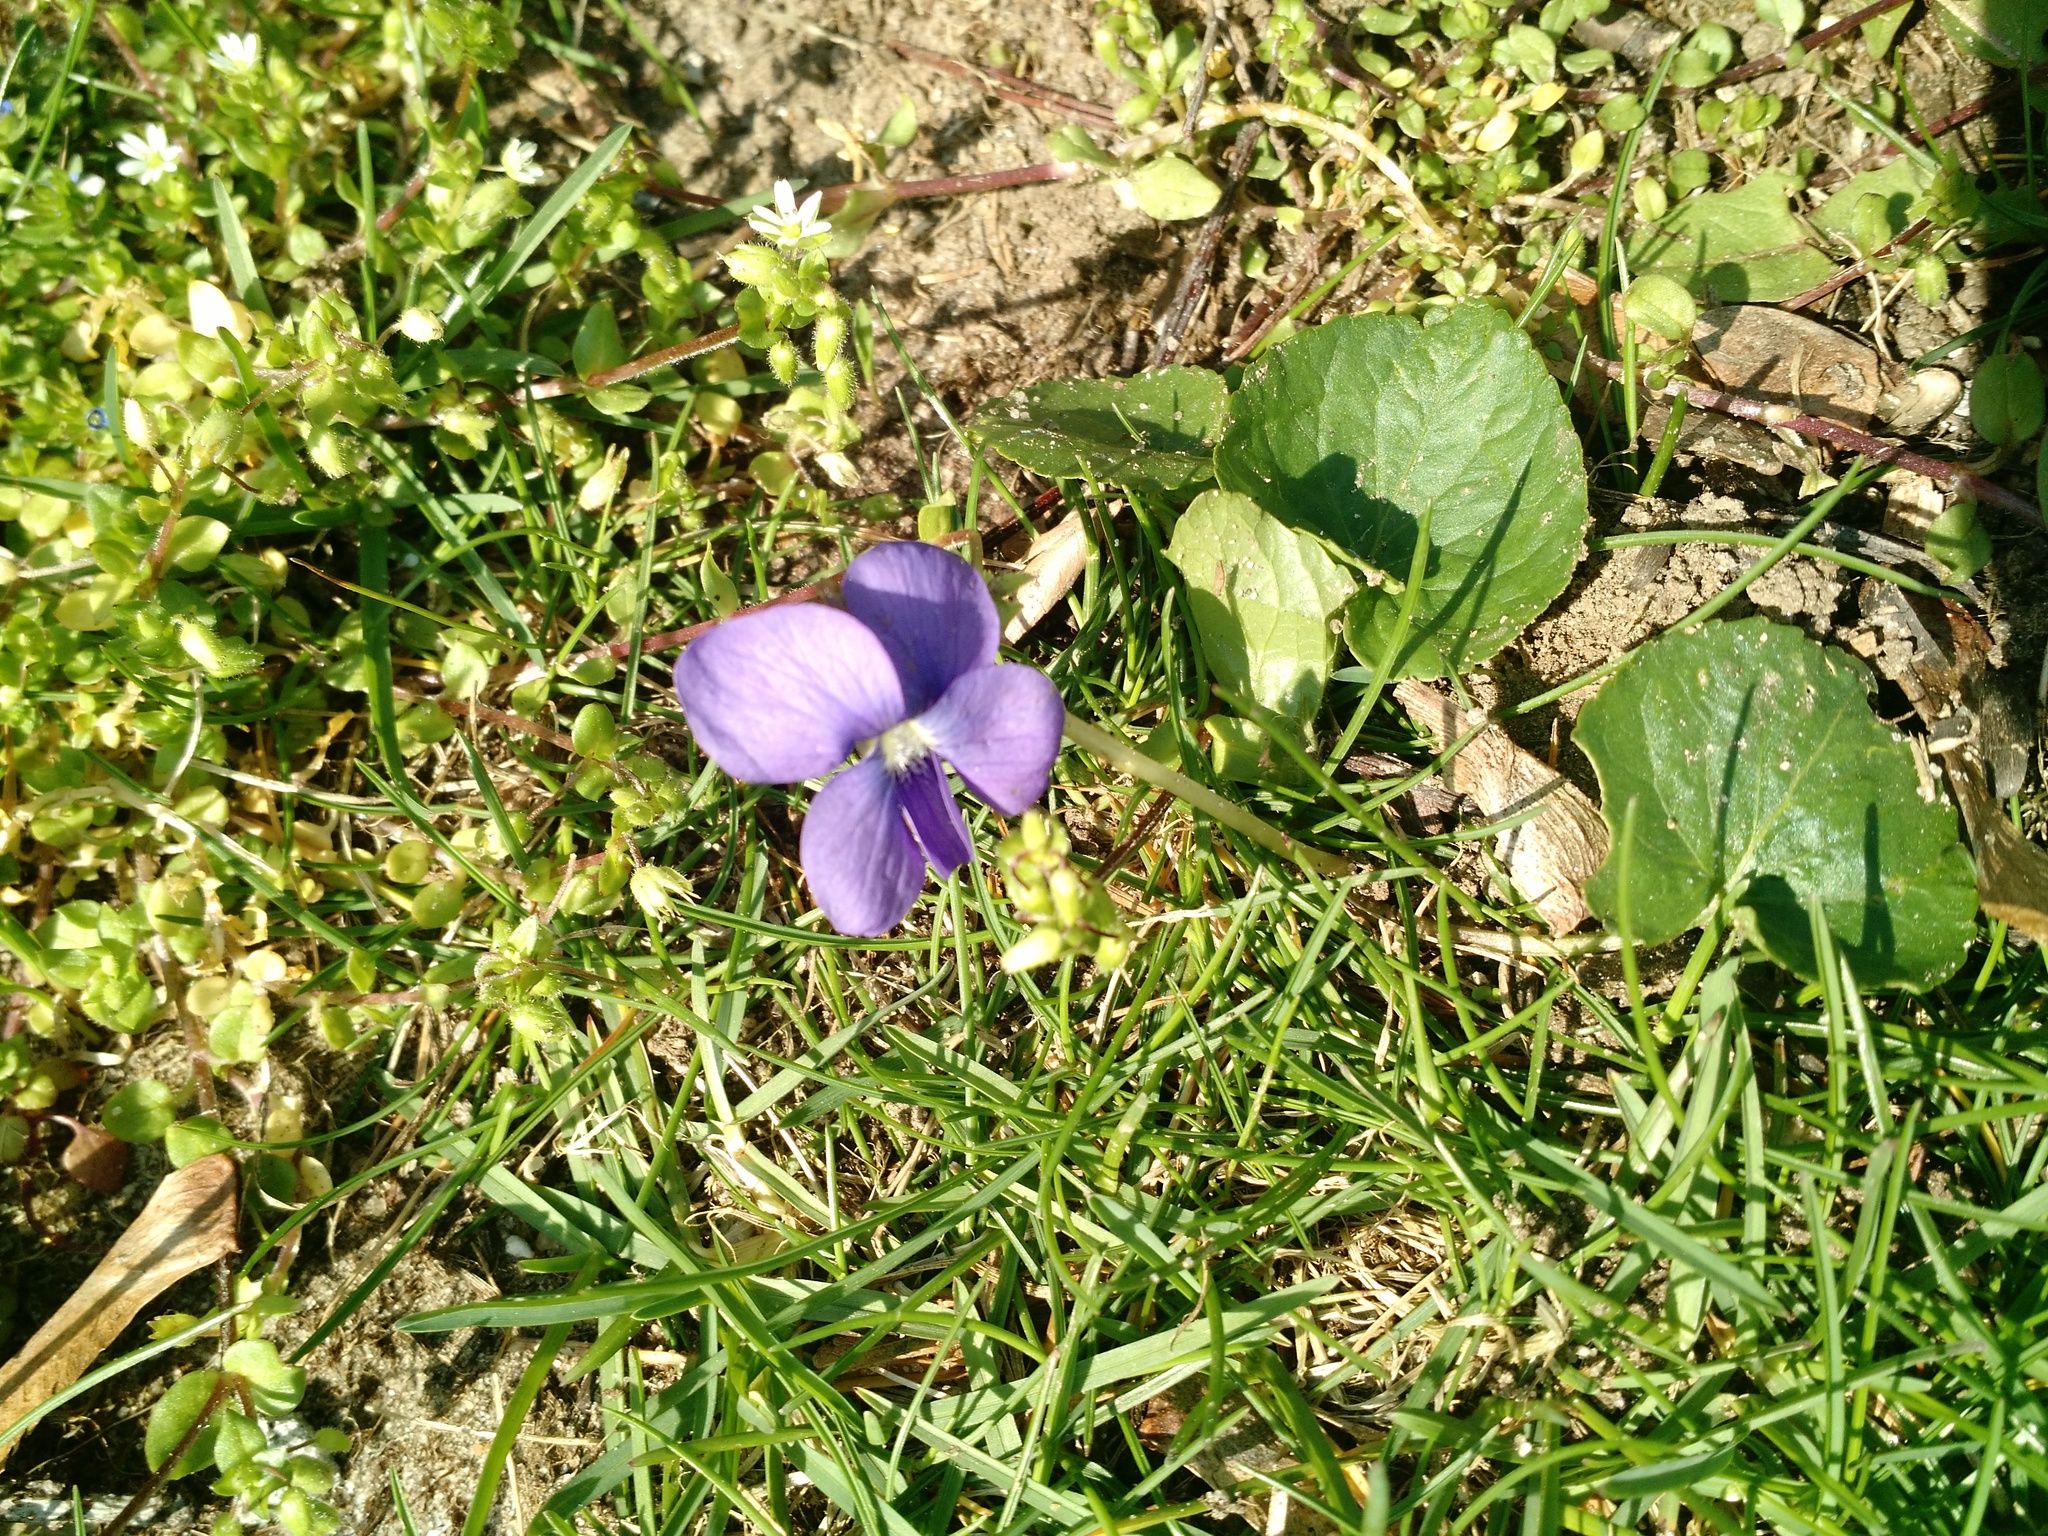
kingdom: Plantae
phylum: Tracheophyta
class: Magnoliopsida
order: Malpighiales
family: Violaceae
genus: Viola
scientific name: Viola sororia
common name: Dooryard violet
